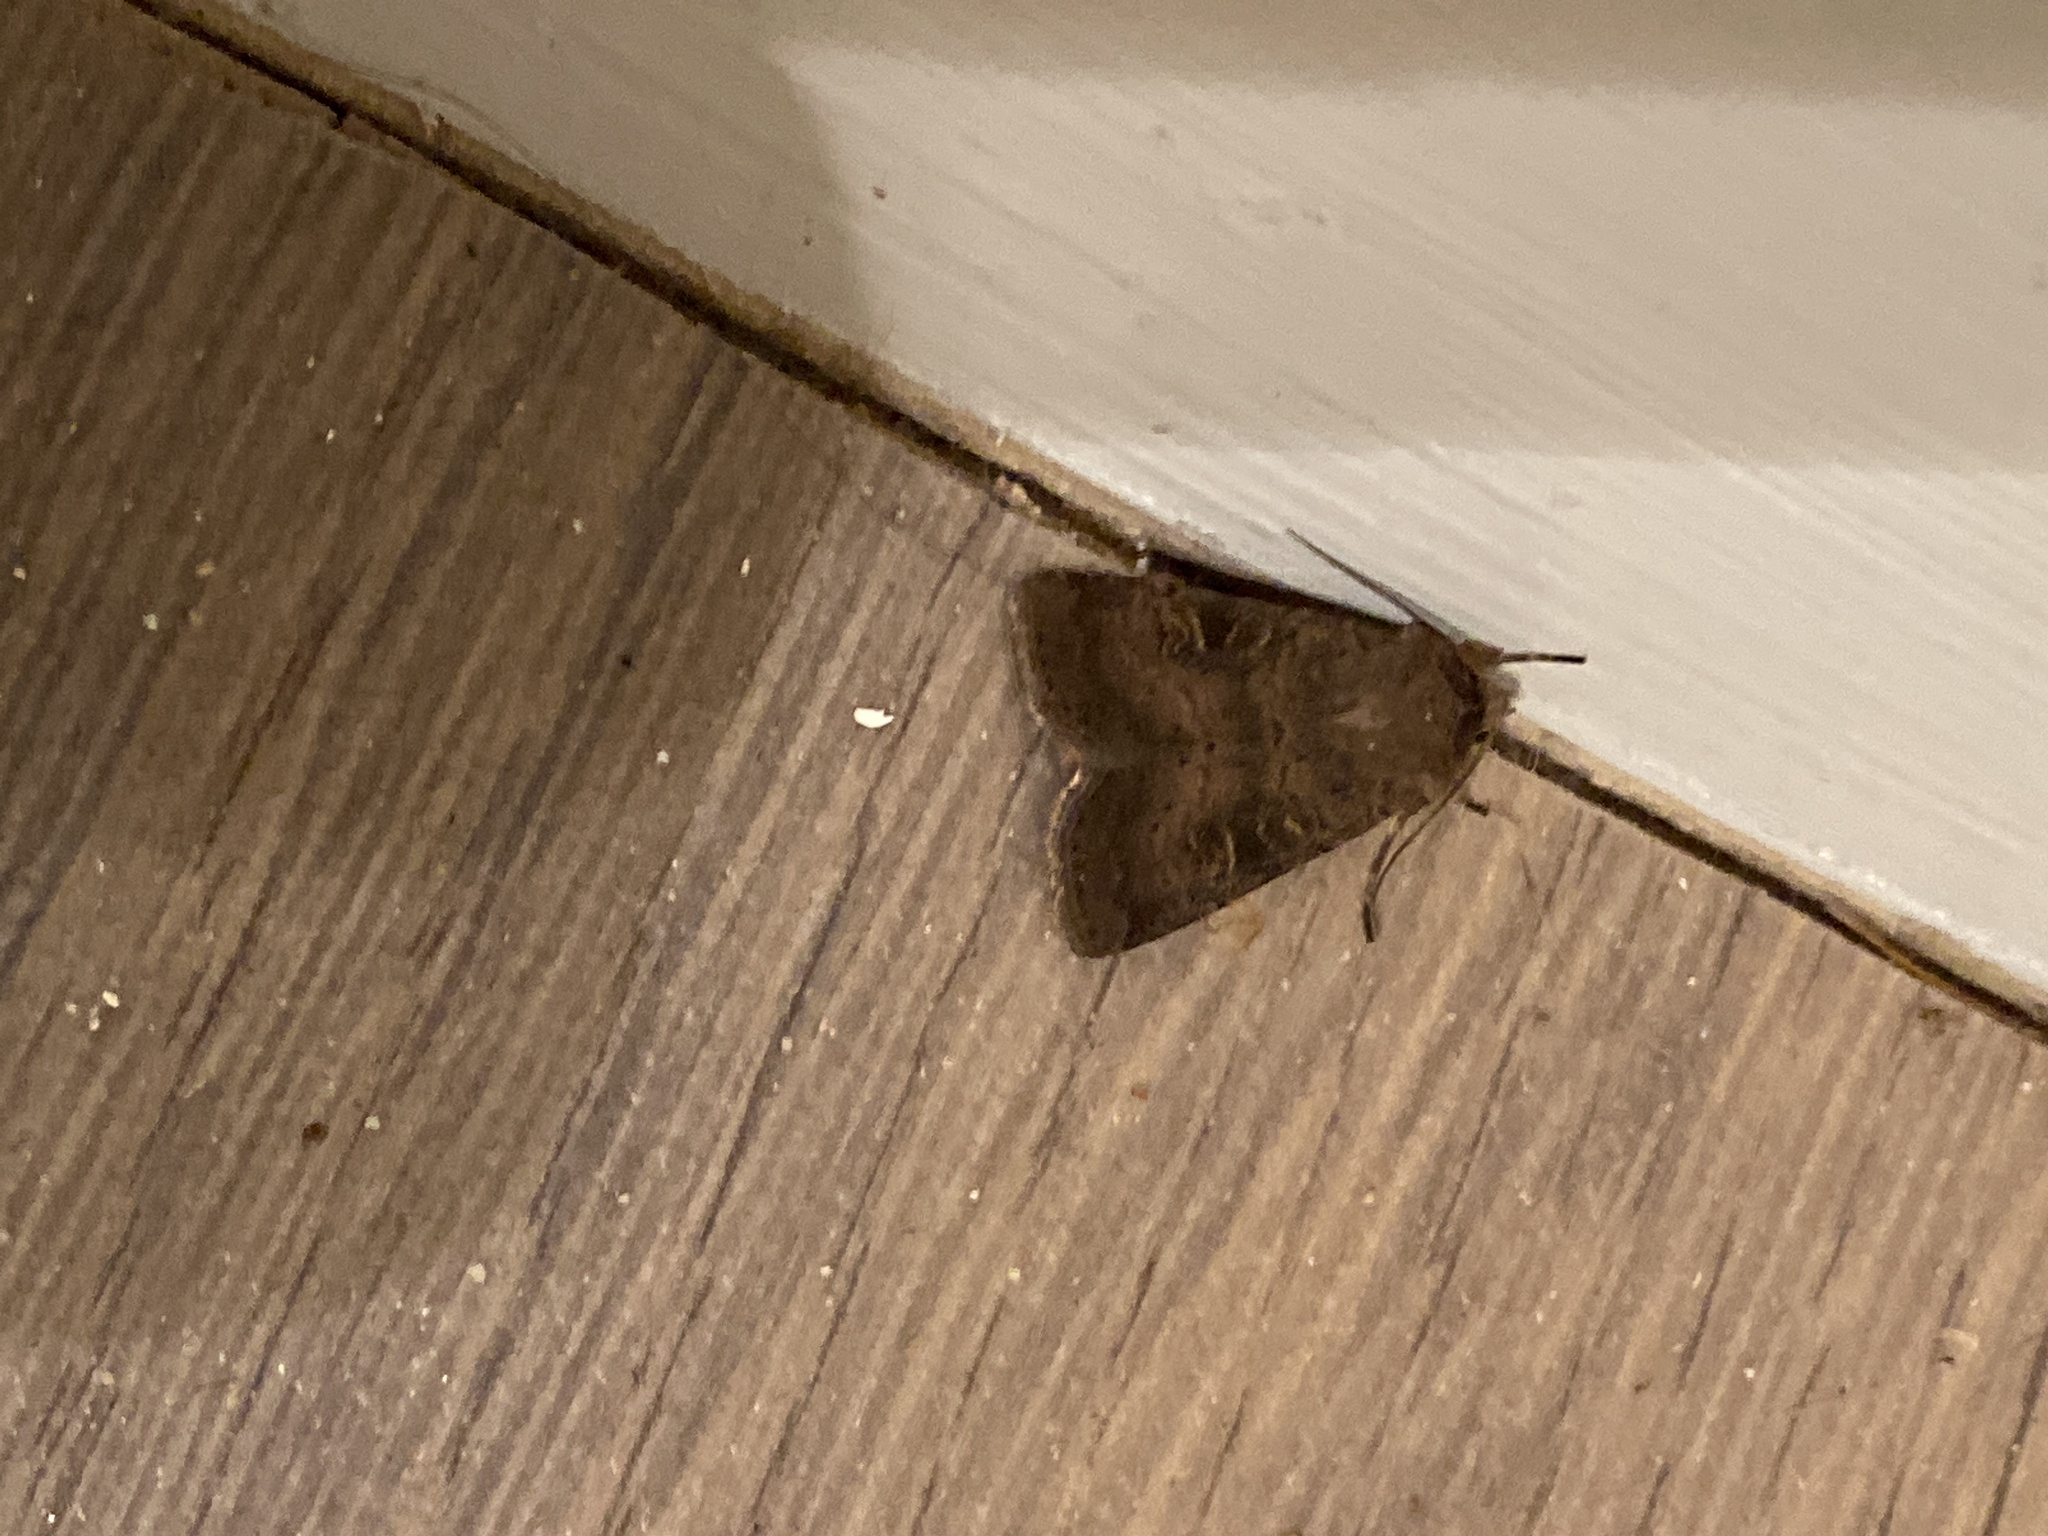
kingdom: Animalia
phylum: Arthropoda
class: Insecta
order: Lepidoptera
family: Noctuidae
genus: Xestia
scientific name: Xestia xanthographa
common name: Square-spot rustic
